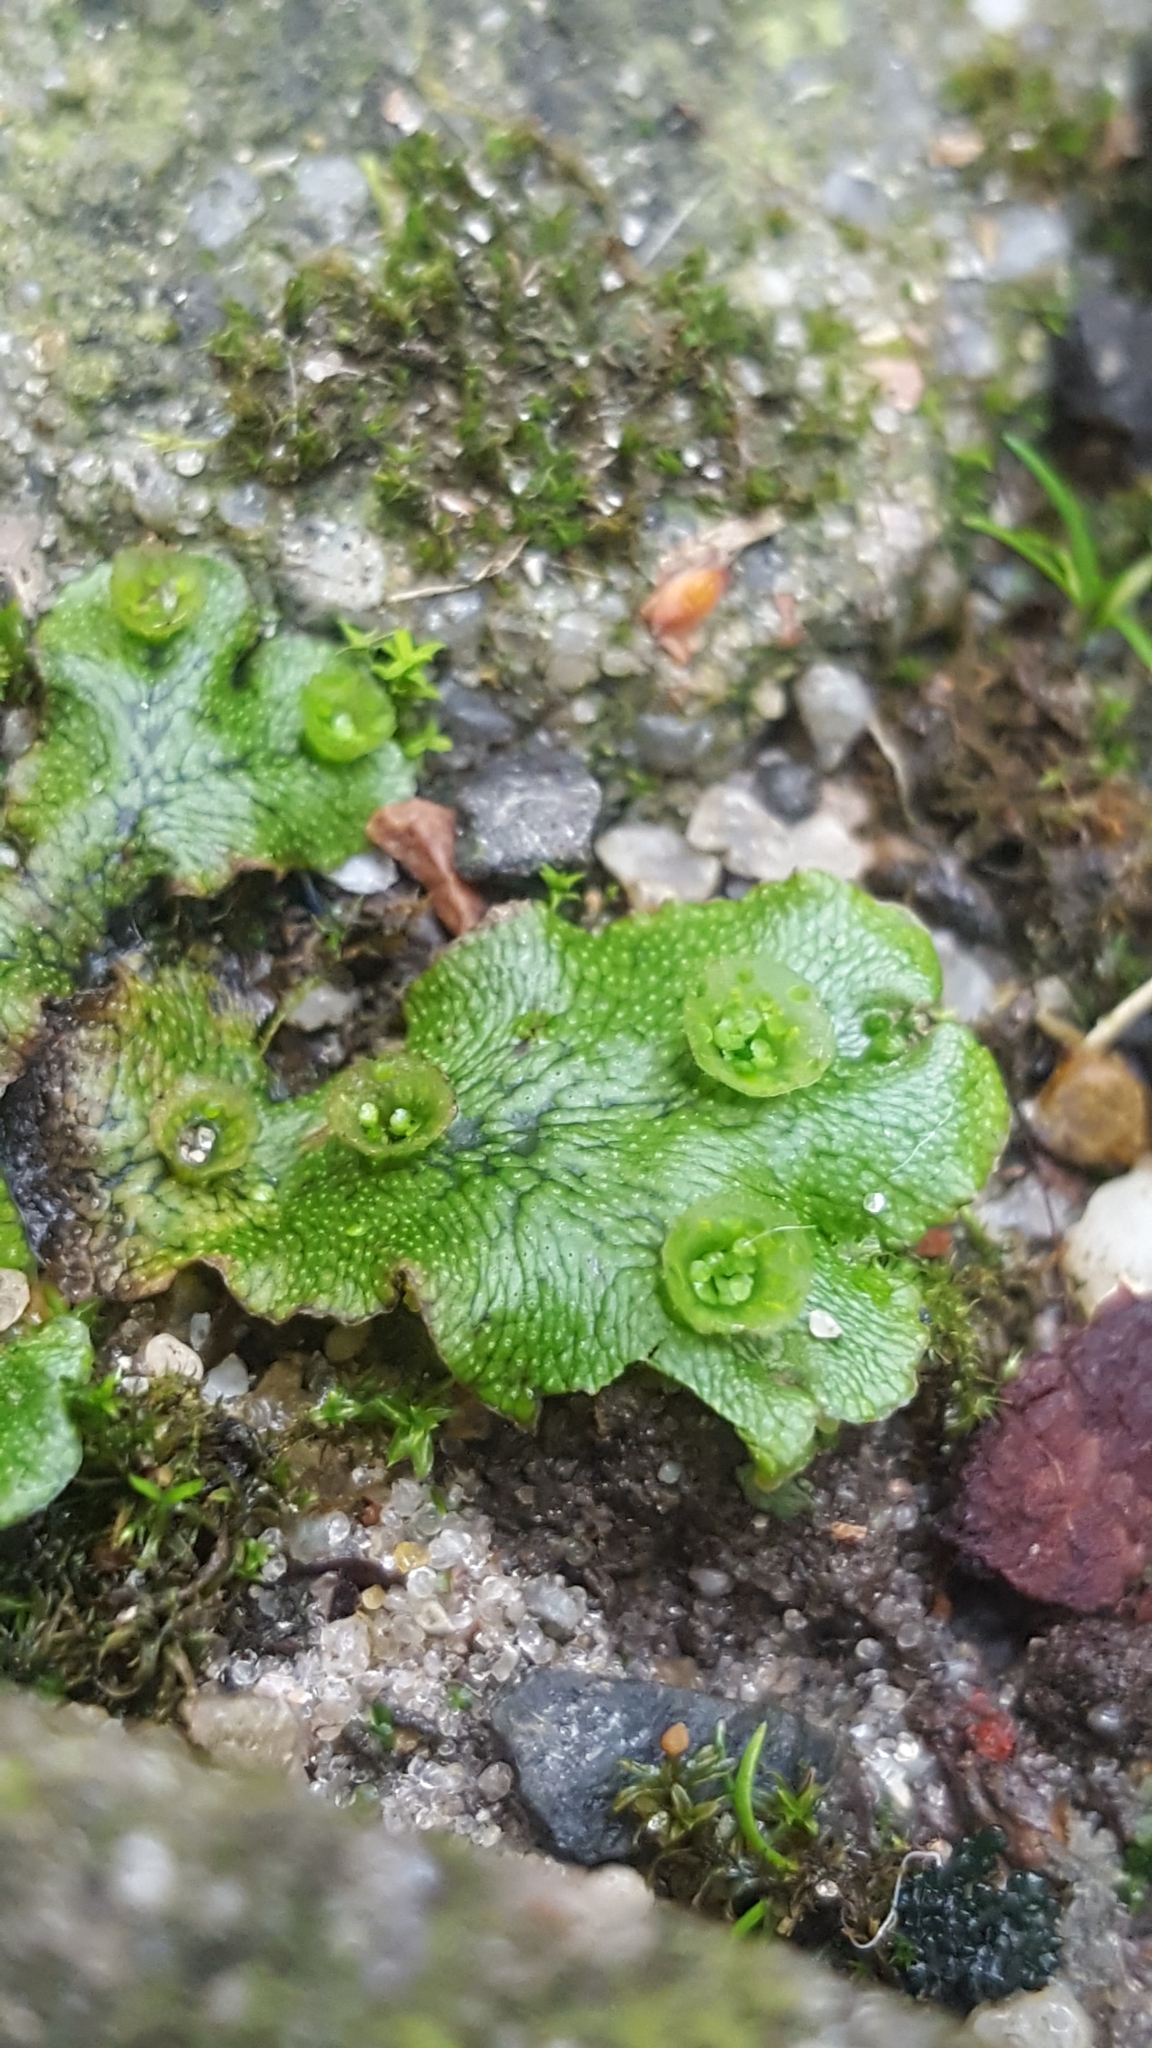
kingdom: Plantae
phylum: Marchantiophyta
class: Marchantiopsida
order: Marchantiales
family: Marchantiaceae
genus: Marchantia
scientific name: Marchantia polymorpha
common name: Common liverwort
